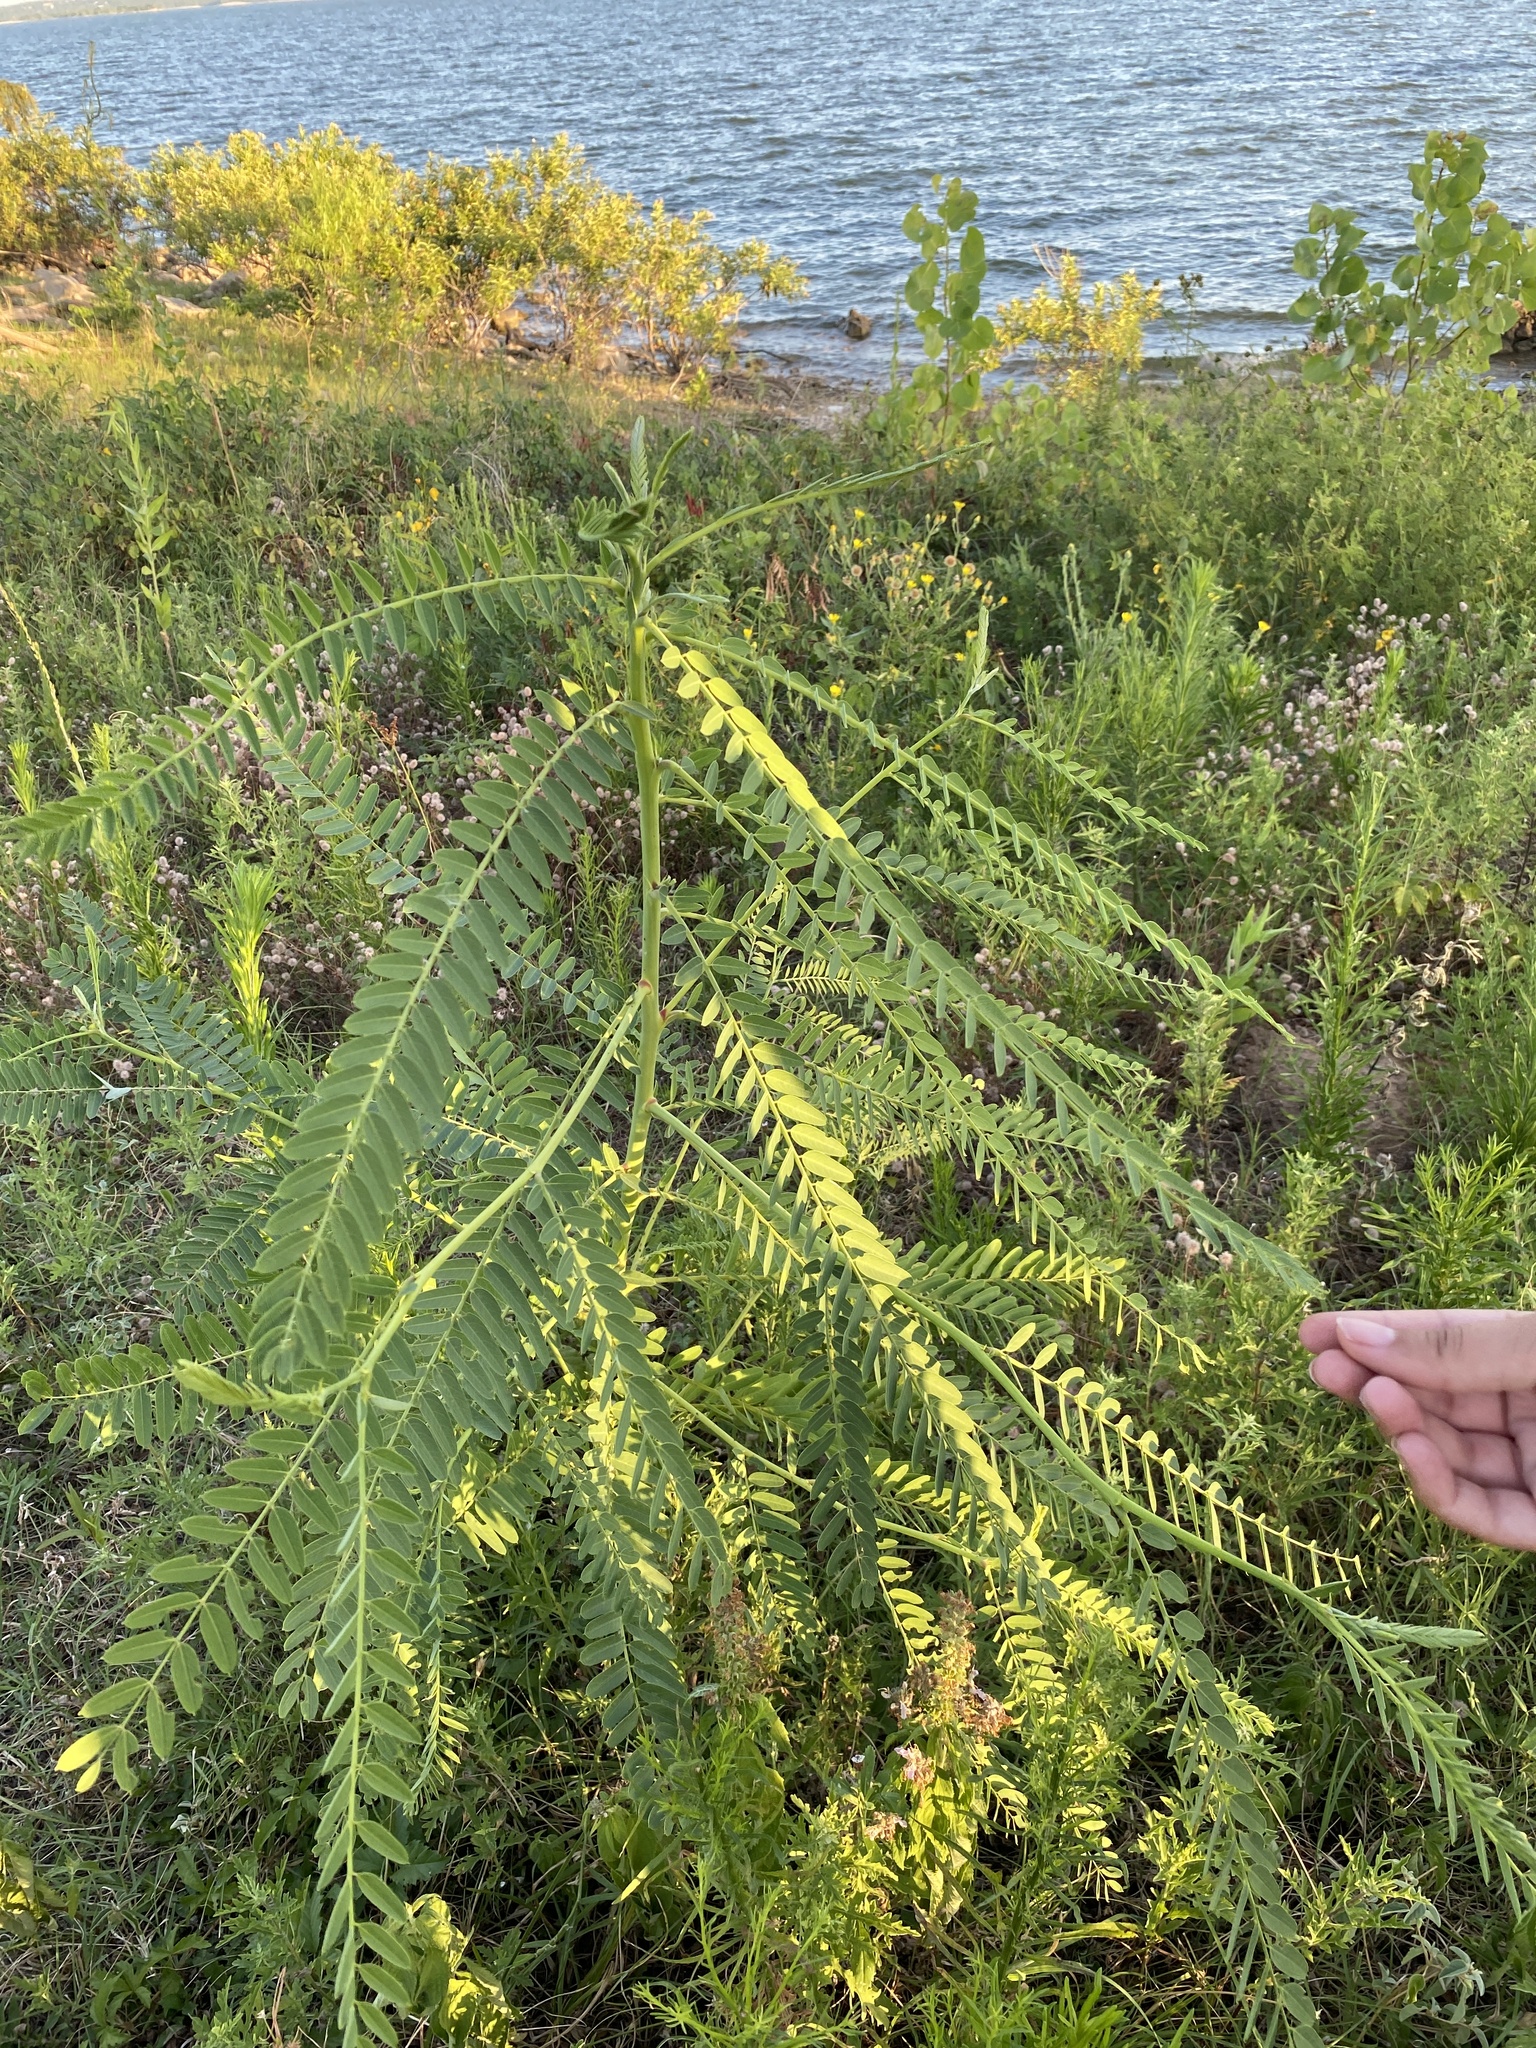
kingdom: Plantae
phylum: Tracheophyta
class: Magnoliopsida
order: Fabales
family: Fabaceae
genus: Sesbania
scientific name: Sesbania herbacea
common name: Bigpod sesbania
